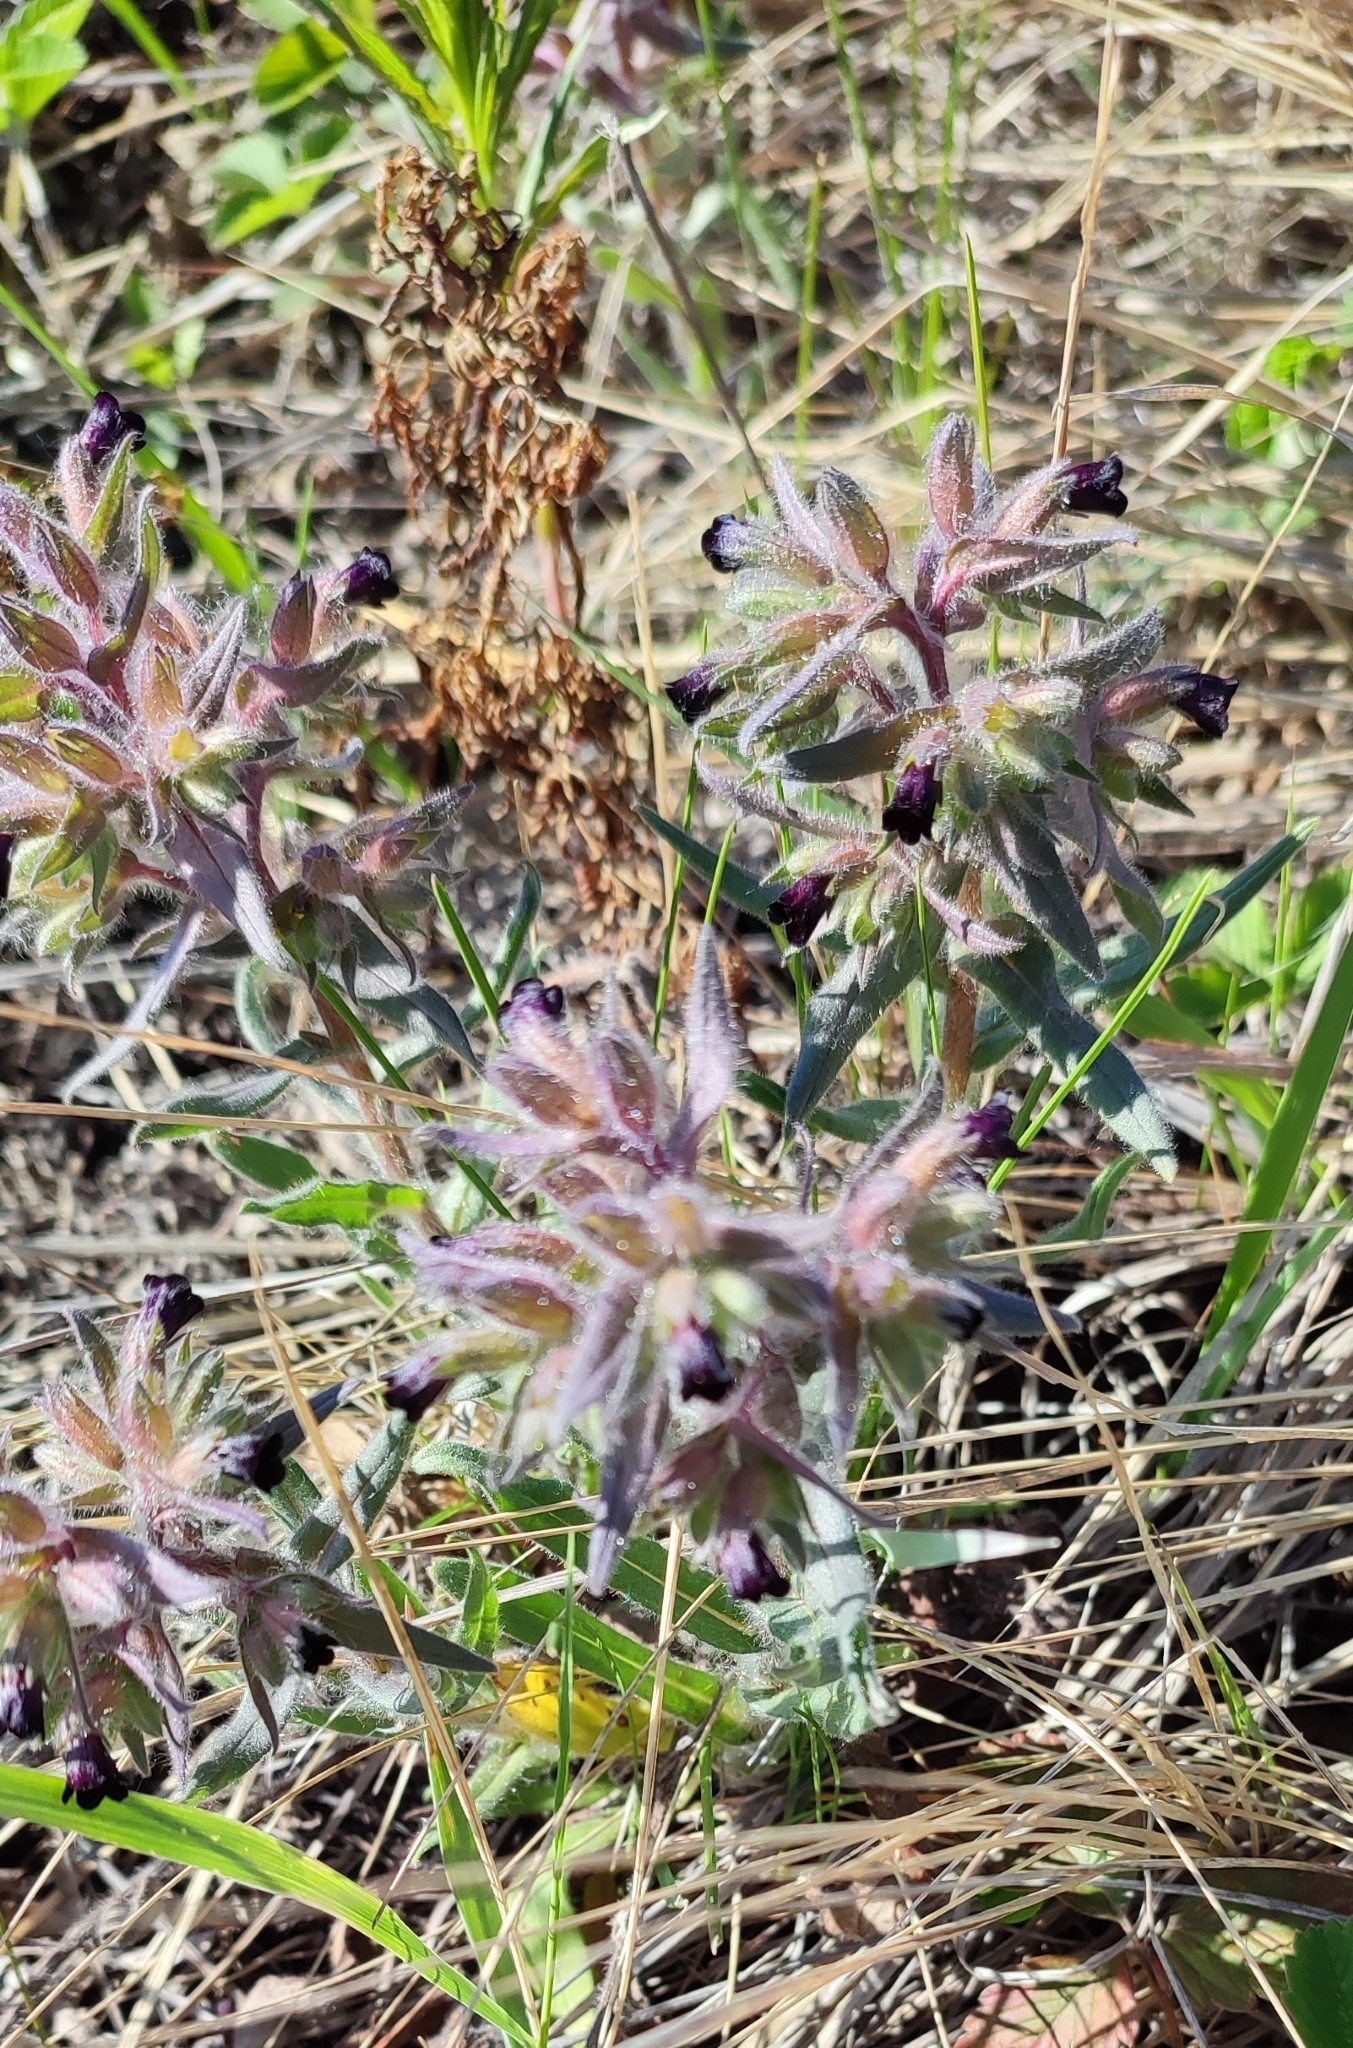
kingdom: Plantae
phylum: Tracheophyta
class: Magnoliopsida
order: Boraginales
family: Boraginaceae
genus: Nonea
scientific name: Nonea pulla
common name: Brown nonea
